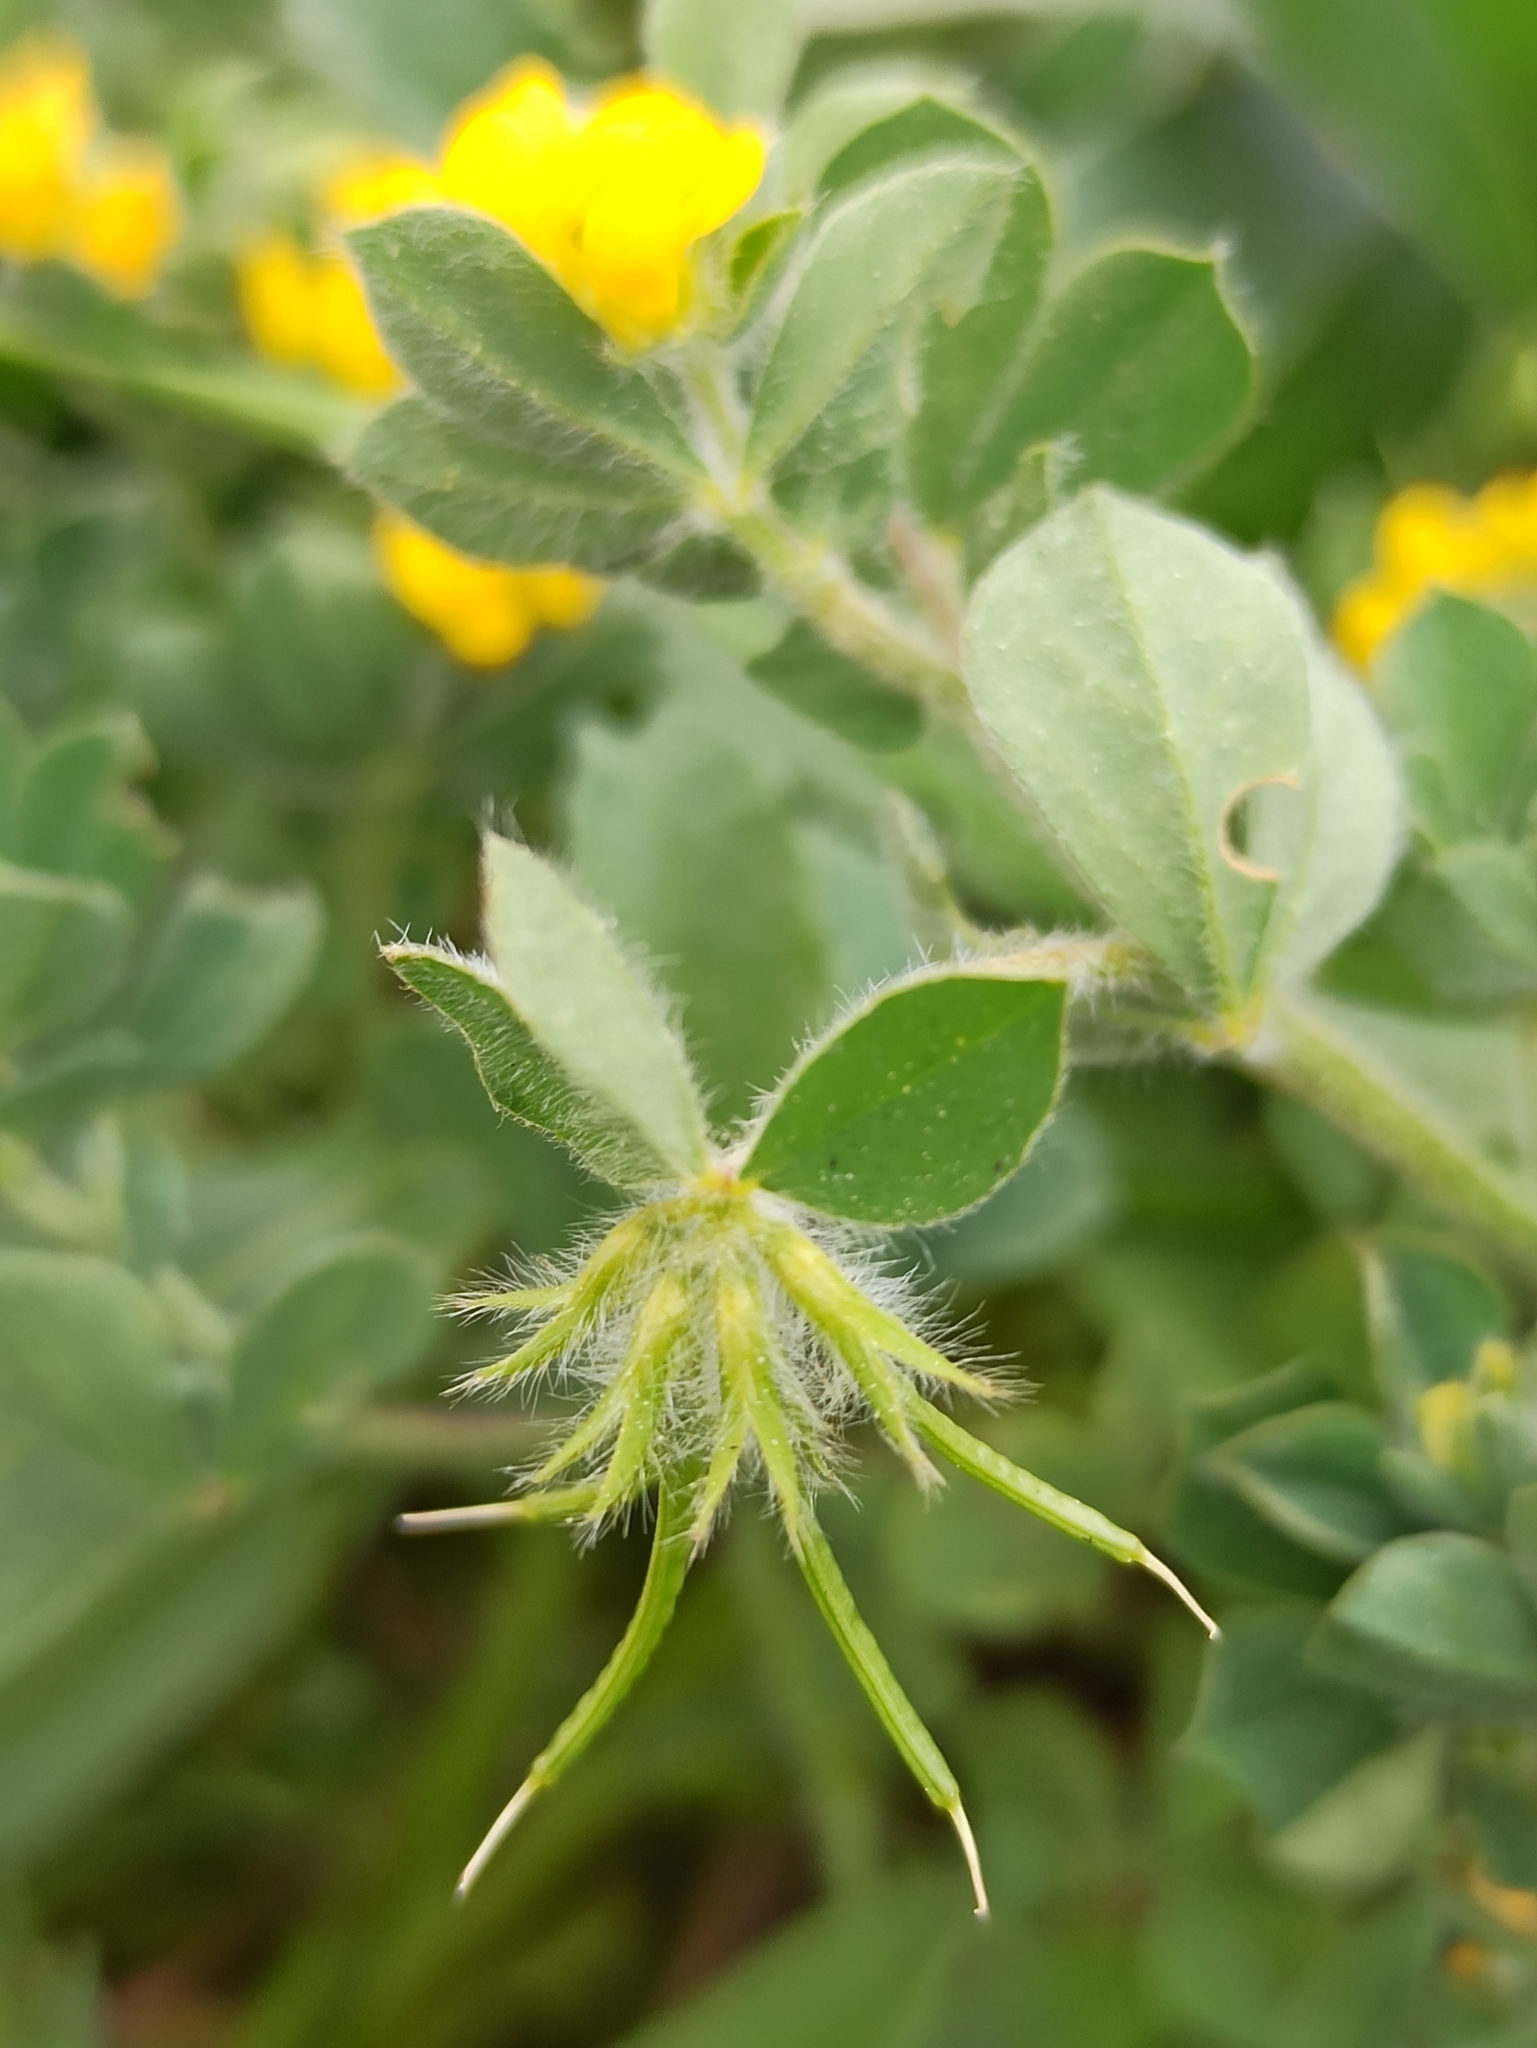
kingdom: Plantae
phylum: Tracheophyta
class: Magnoliopsida
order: Fabales
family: Fabaceae
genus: Lotus
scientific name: Lotus ornithopodioides
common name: Southern bird's-foot trefoil
